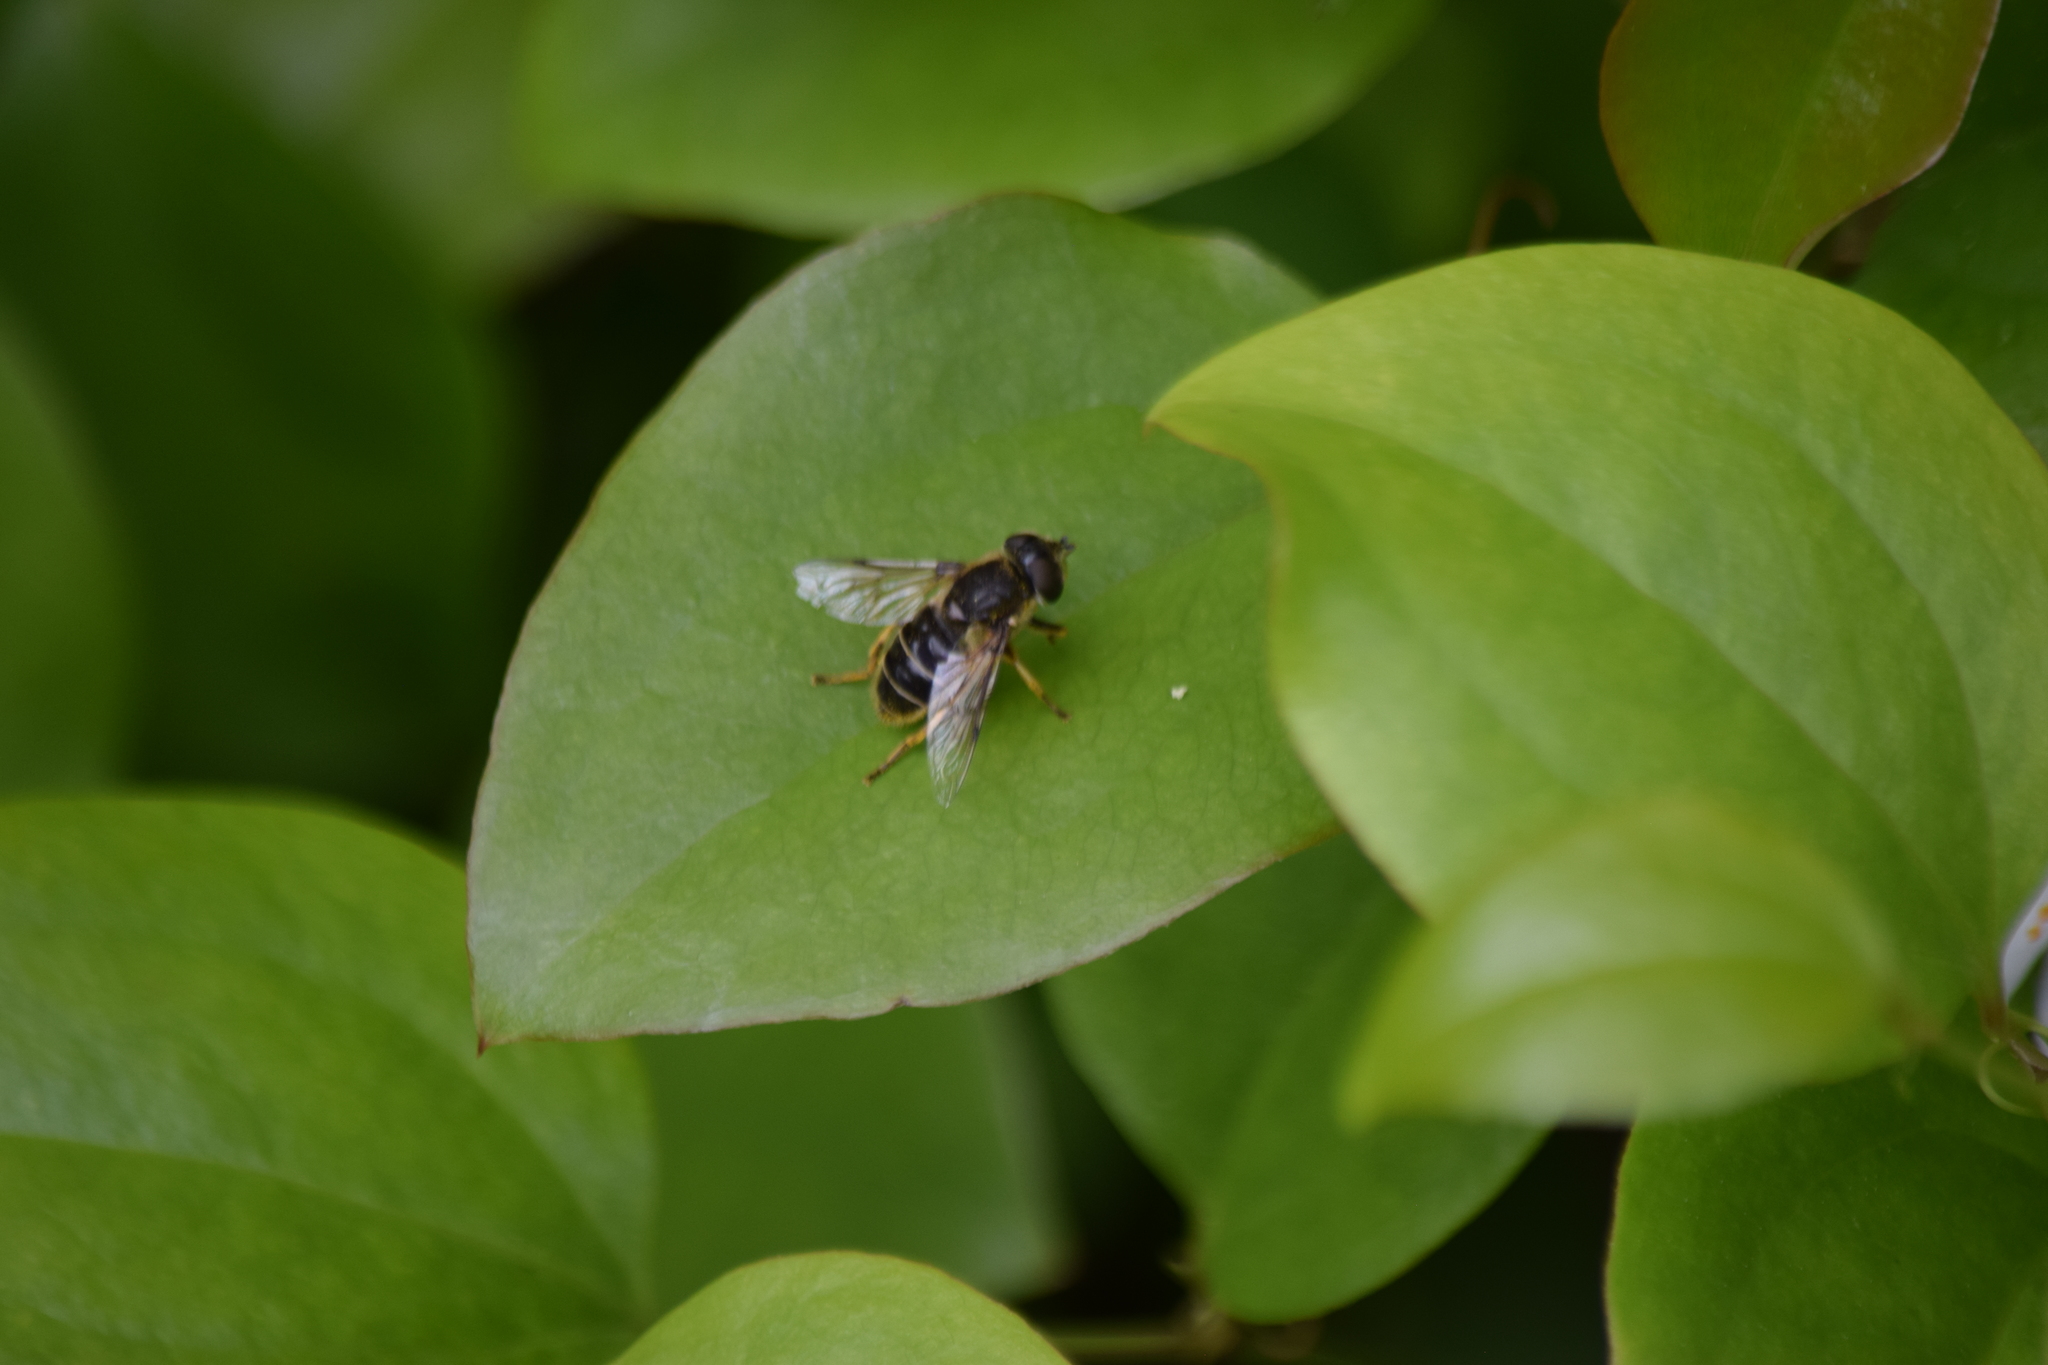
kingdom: Animalia
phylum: Arthropoda
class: Insecta
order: Diptera
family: Syrphidae
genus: Eristalis
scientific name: Eristalis dimidiata
